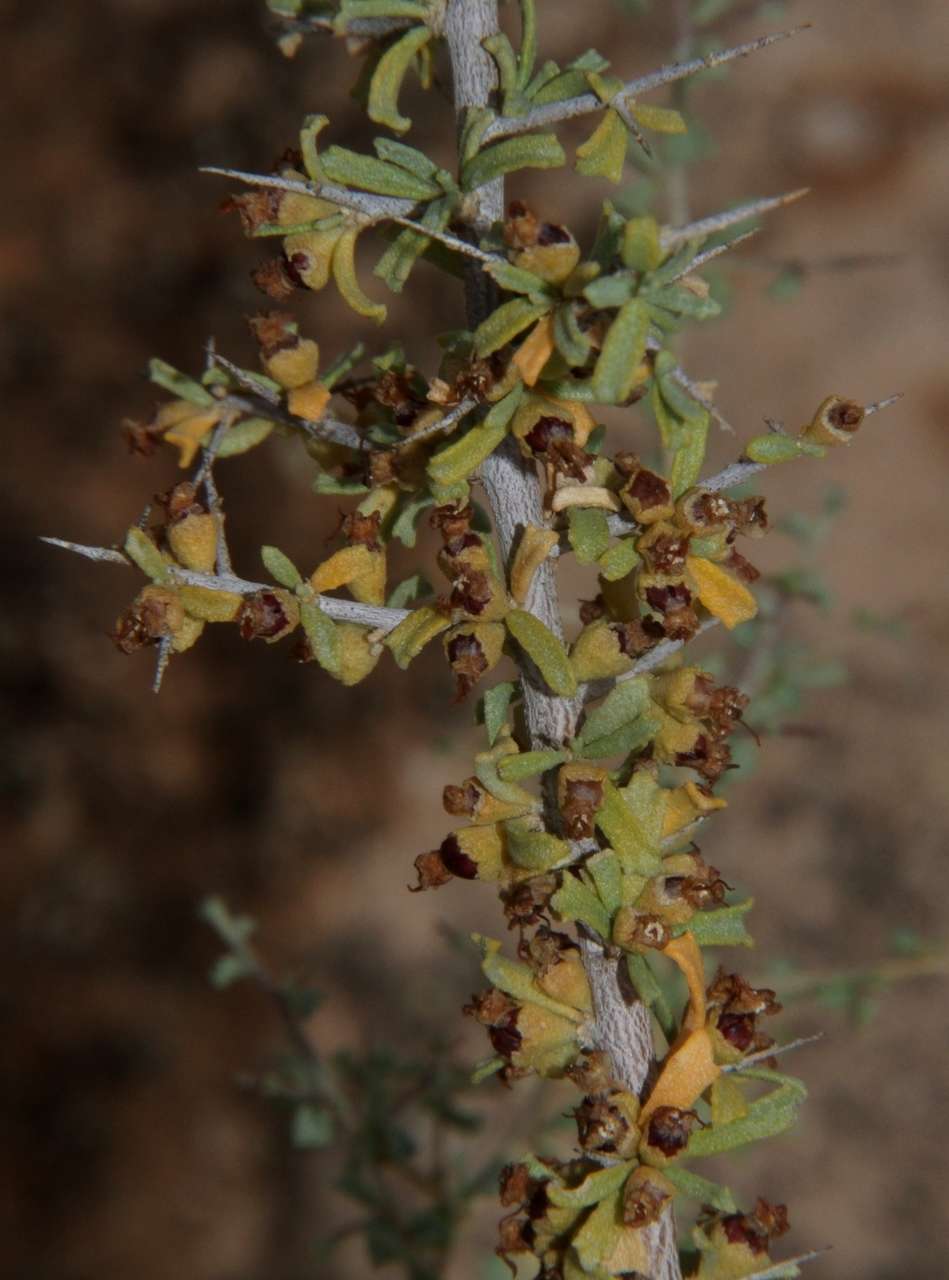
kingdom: Plantae
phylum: Tracheophyta
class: Magnoliopsida
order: Malvales
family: Malvaceae
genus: Lawrencia
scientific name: Lawrencia squamata
